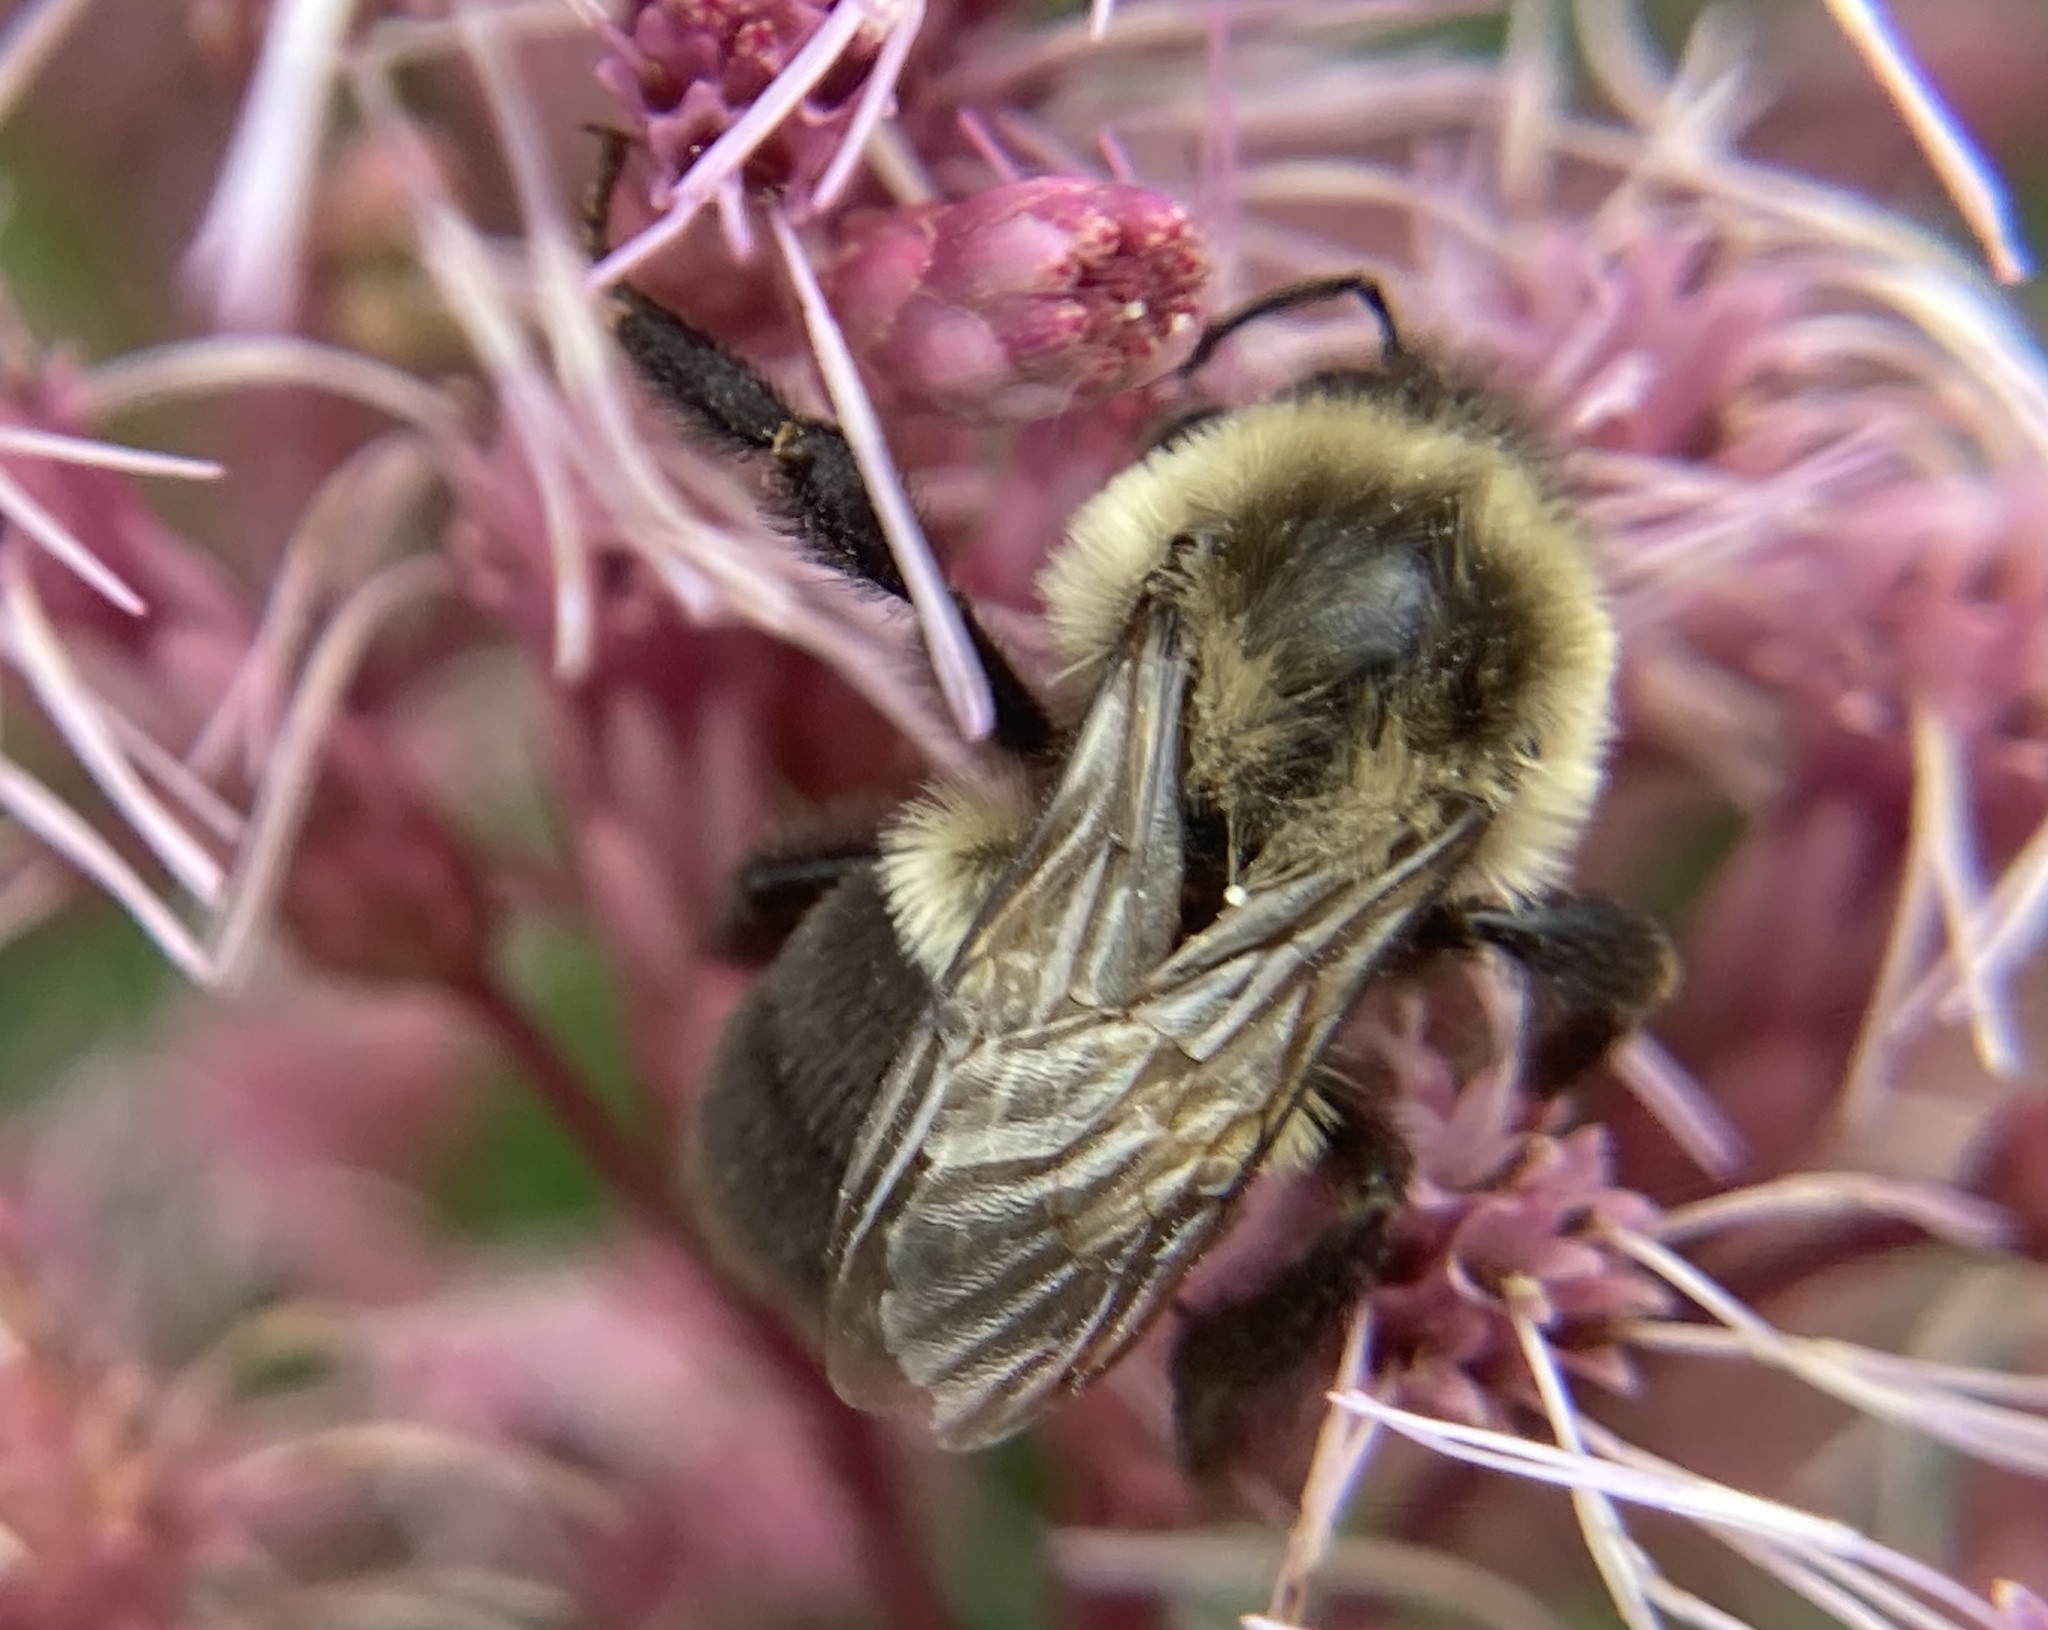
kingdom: Animalia
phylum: Arthropoda
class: Insecta
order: Hymenoptera
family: Apidae
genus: Bombus
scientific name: Bombus impatiens
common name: Common eastern bumble bee
